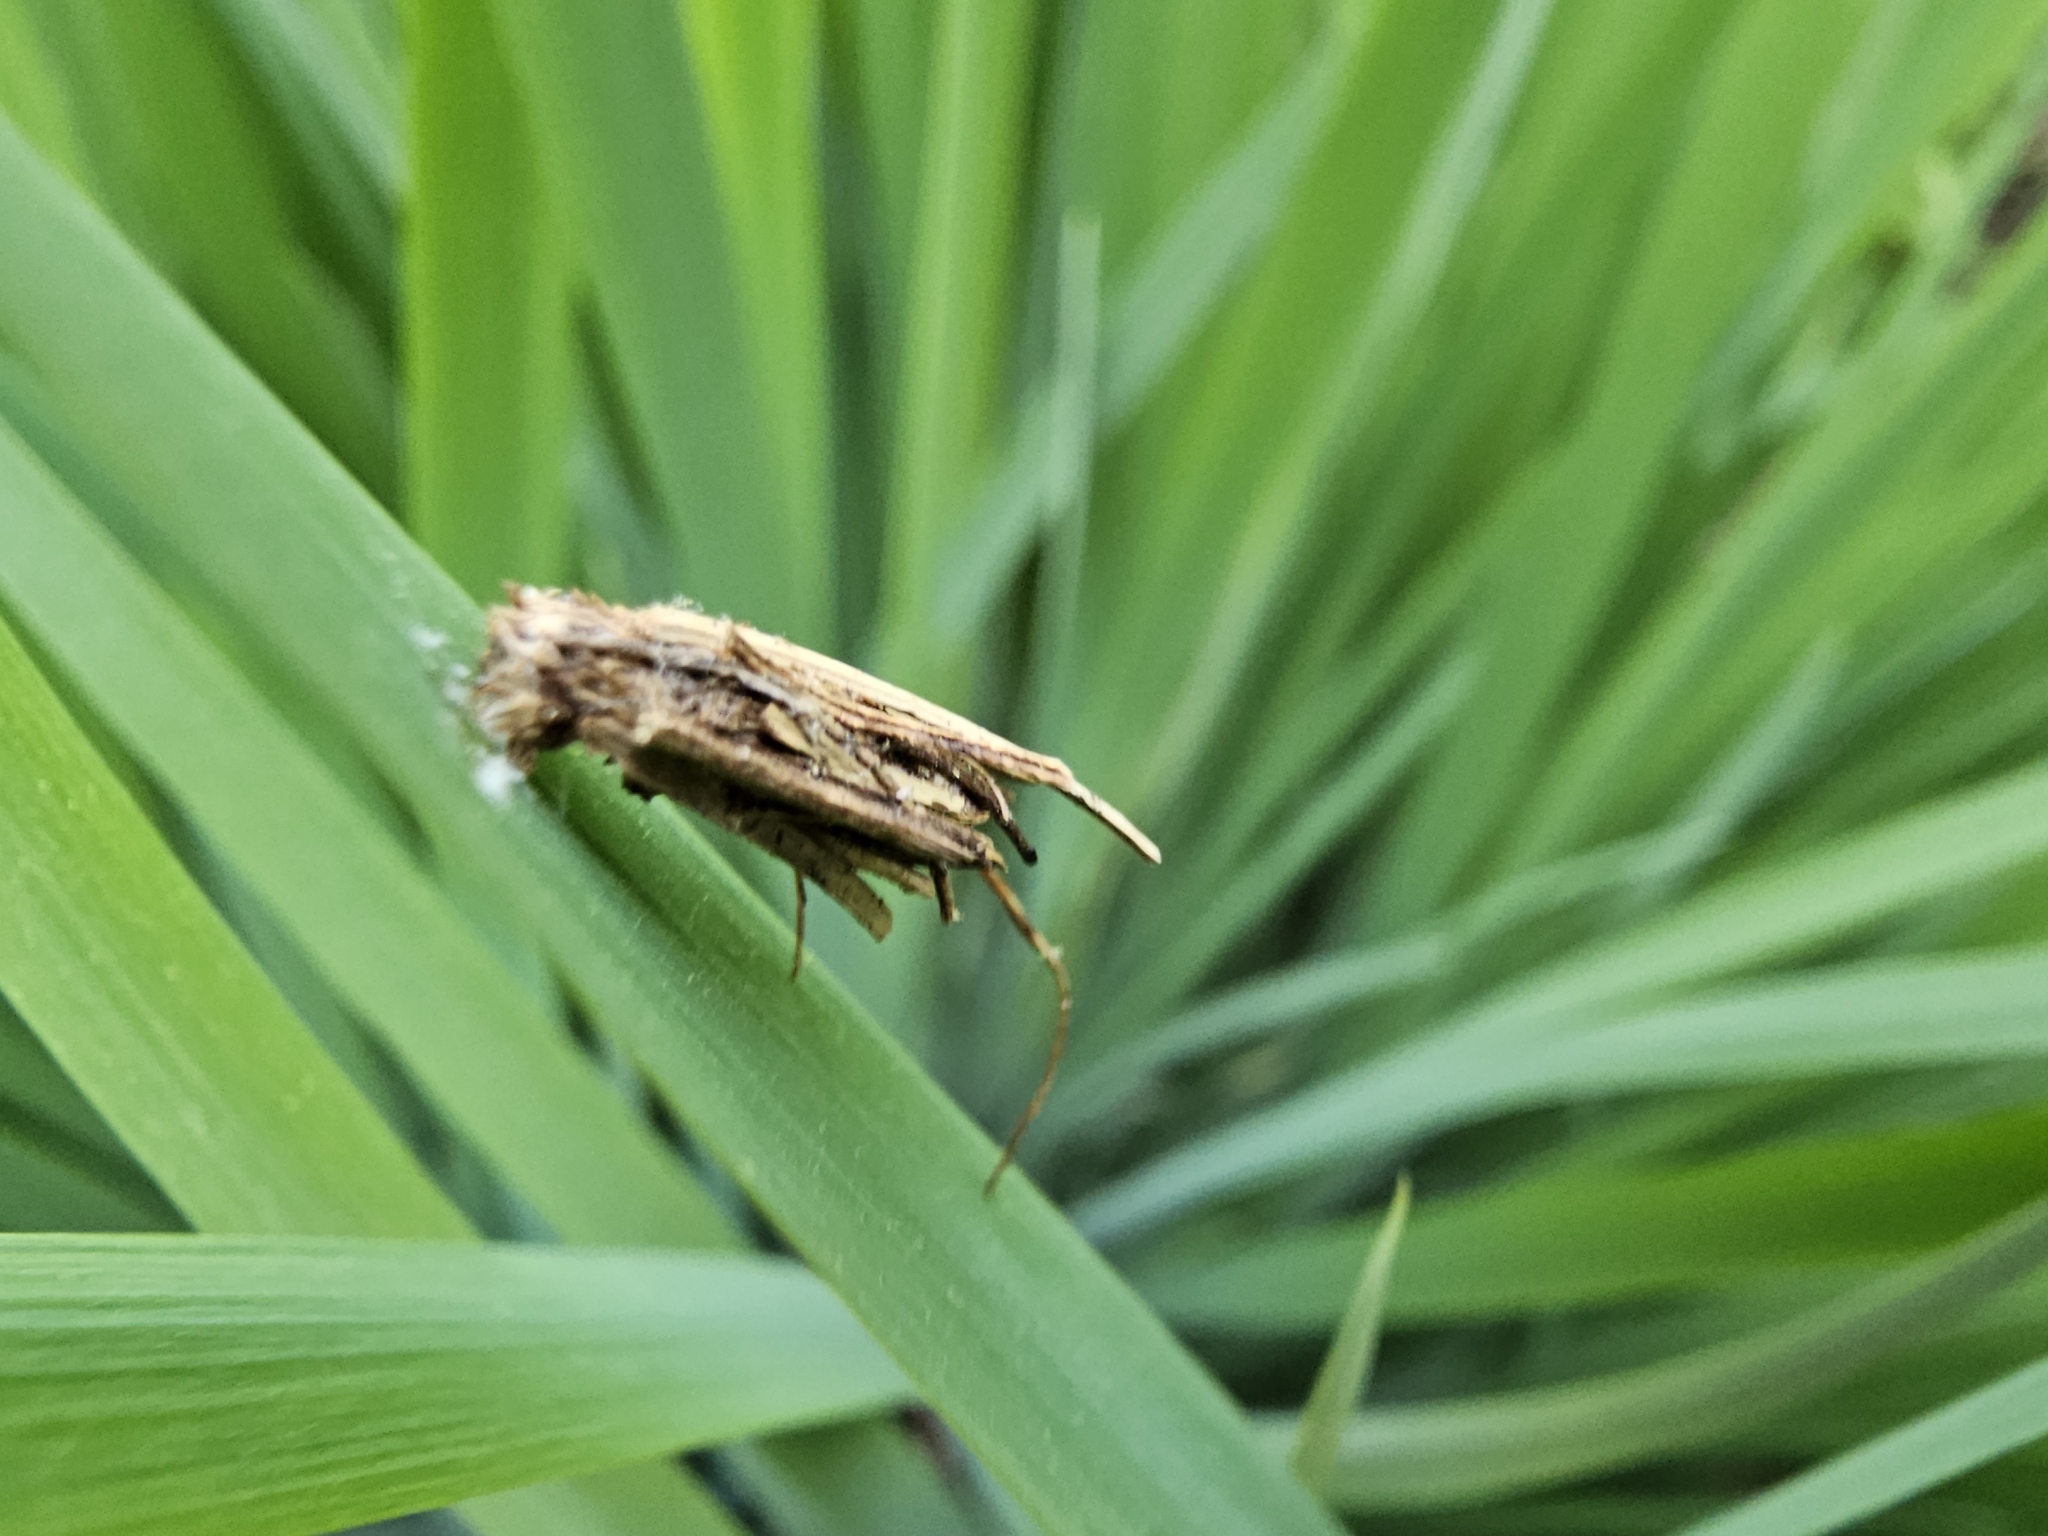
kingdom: Animalia
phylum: Arthropoda
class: Insecta
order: Lepidoptera
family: Psychidae
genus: Psyche
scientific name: Psyche casta
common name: Common sweep
